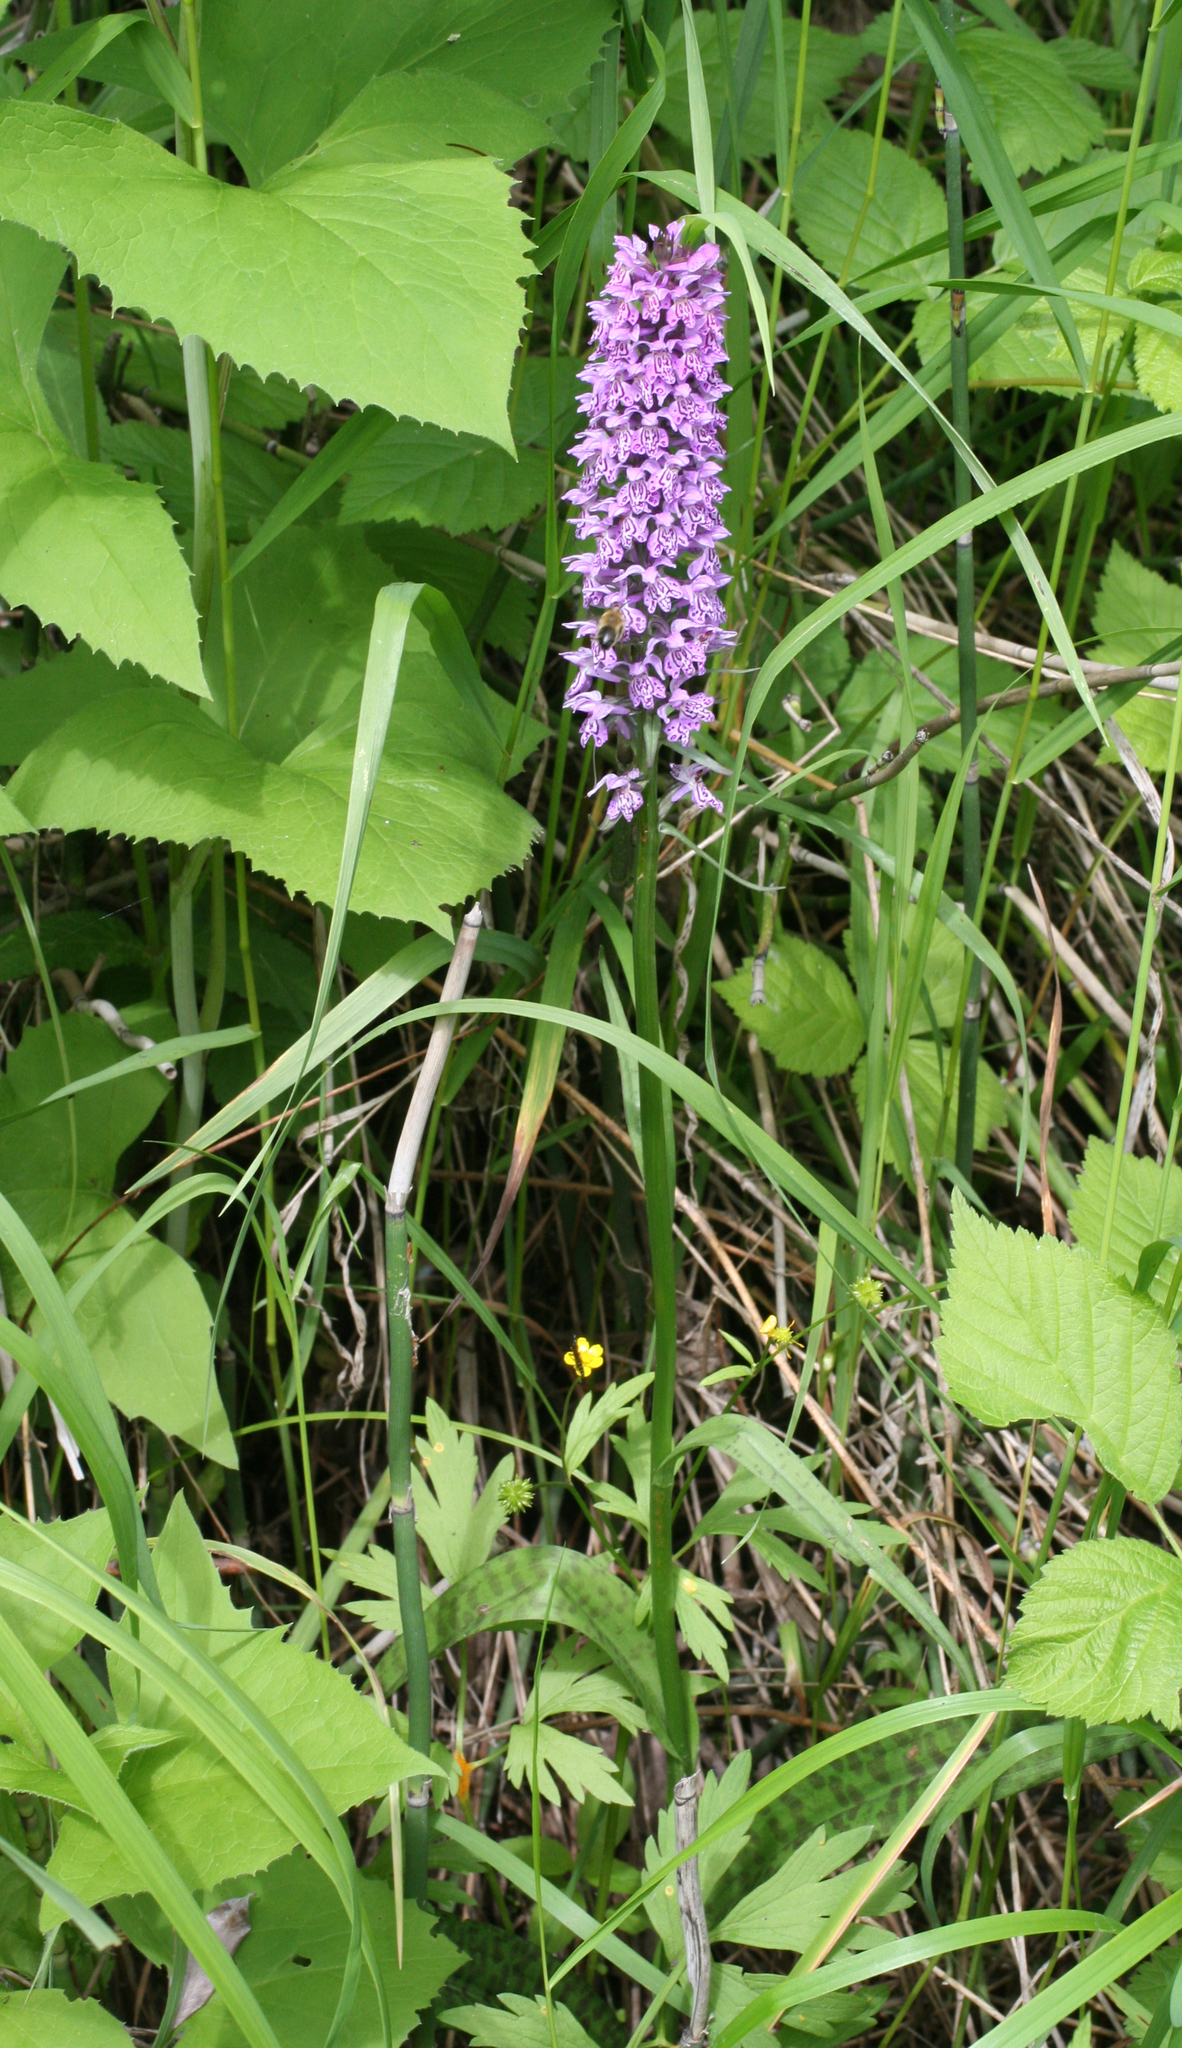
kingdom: Plantae
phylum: Tracheophyta
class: Liliopsida
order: Asparagales
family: Orchidaceae
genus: Dactylorhiza
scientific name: Dactylorhiza maculata
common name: Heath spotted-orchid
